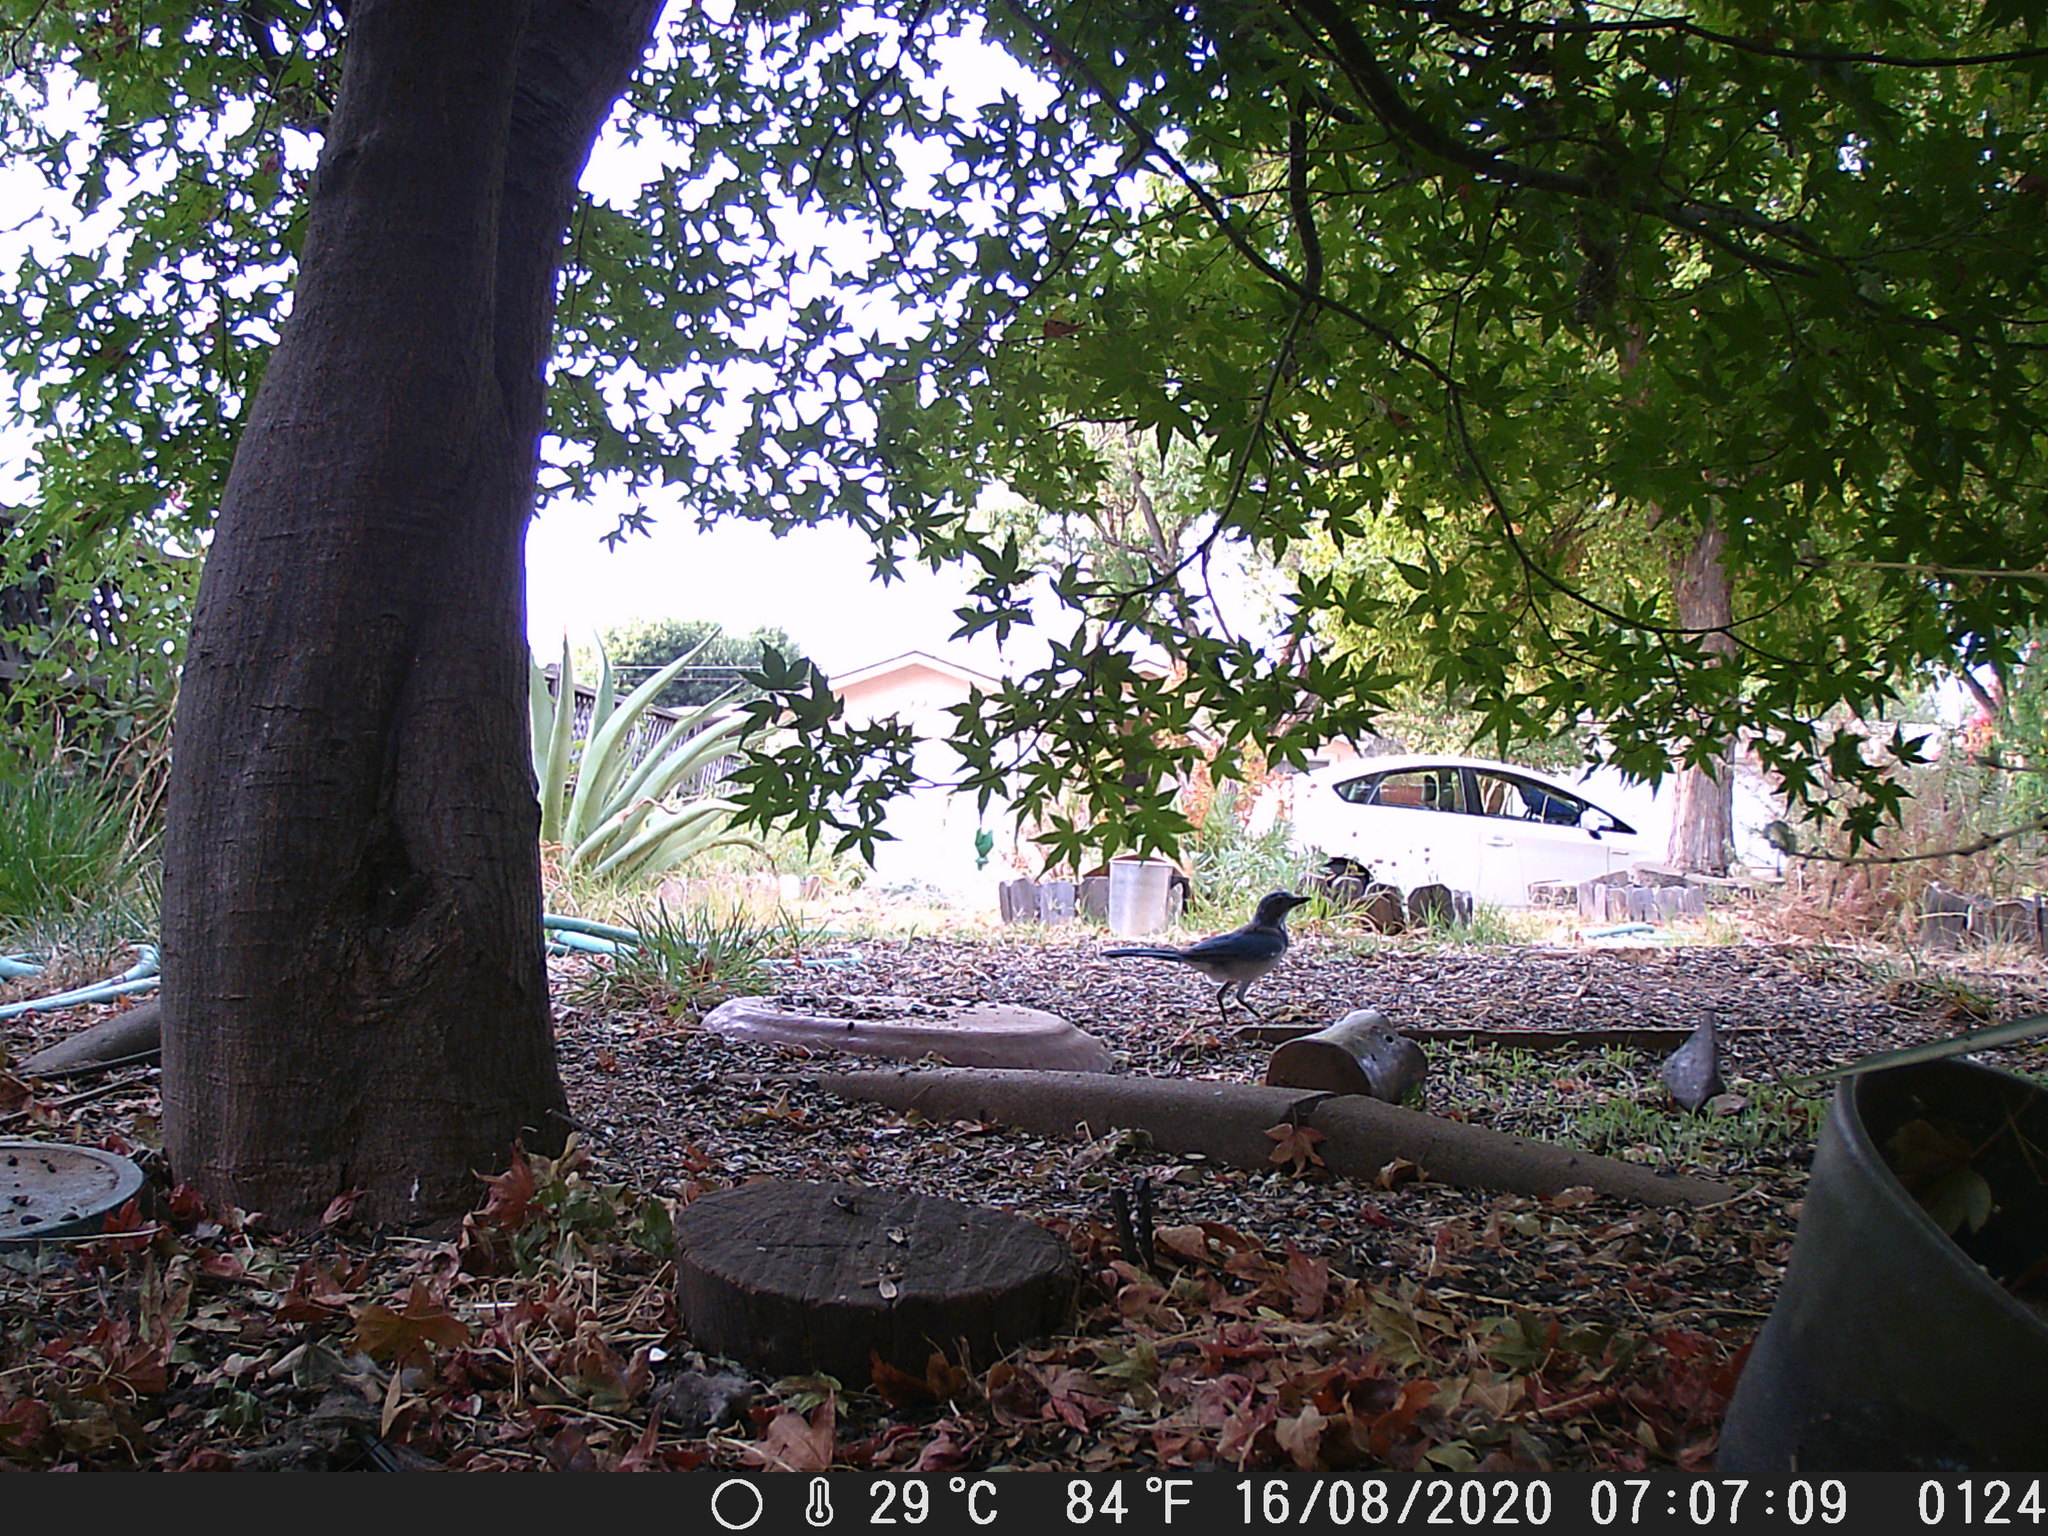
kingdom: Animalia
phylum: Chordata
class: Aves
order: Passeriformes
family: Corvidae
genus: Aphelocoma
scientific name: Aphelocoma californica
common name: California scrub-jay
